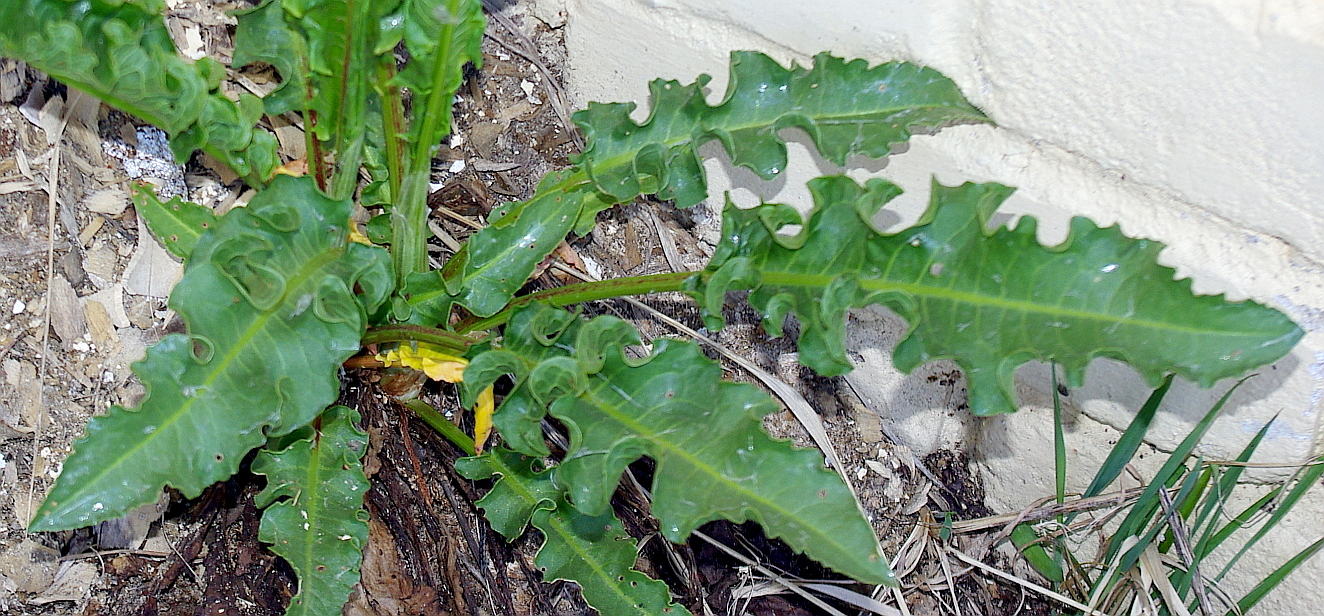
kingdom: Plantae
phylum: Tracheophyta
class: Magnoliopsida
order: Caryophyllales
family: Polygonaceae
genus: Rumex
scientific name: Rumex crispus
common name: Curled dock
